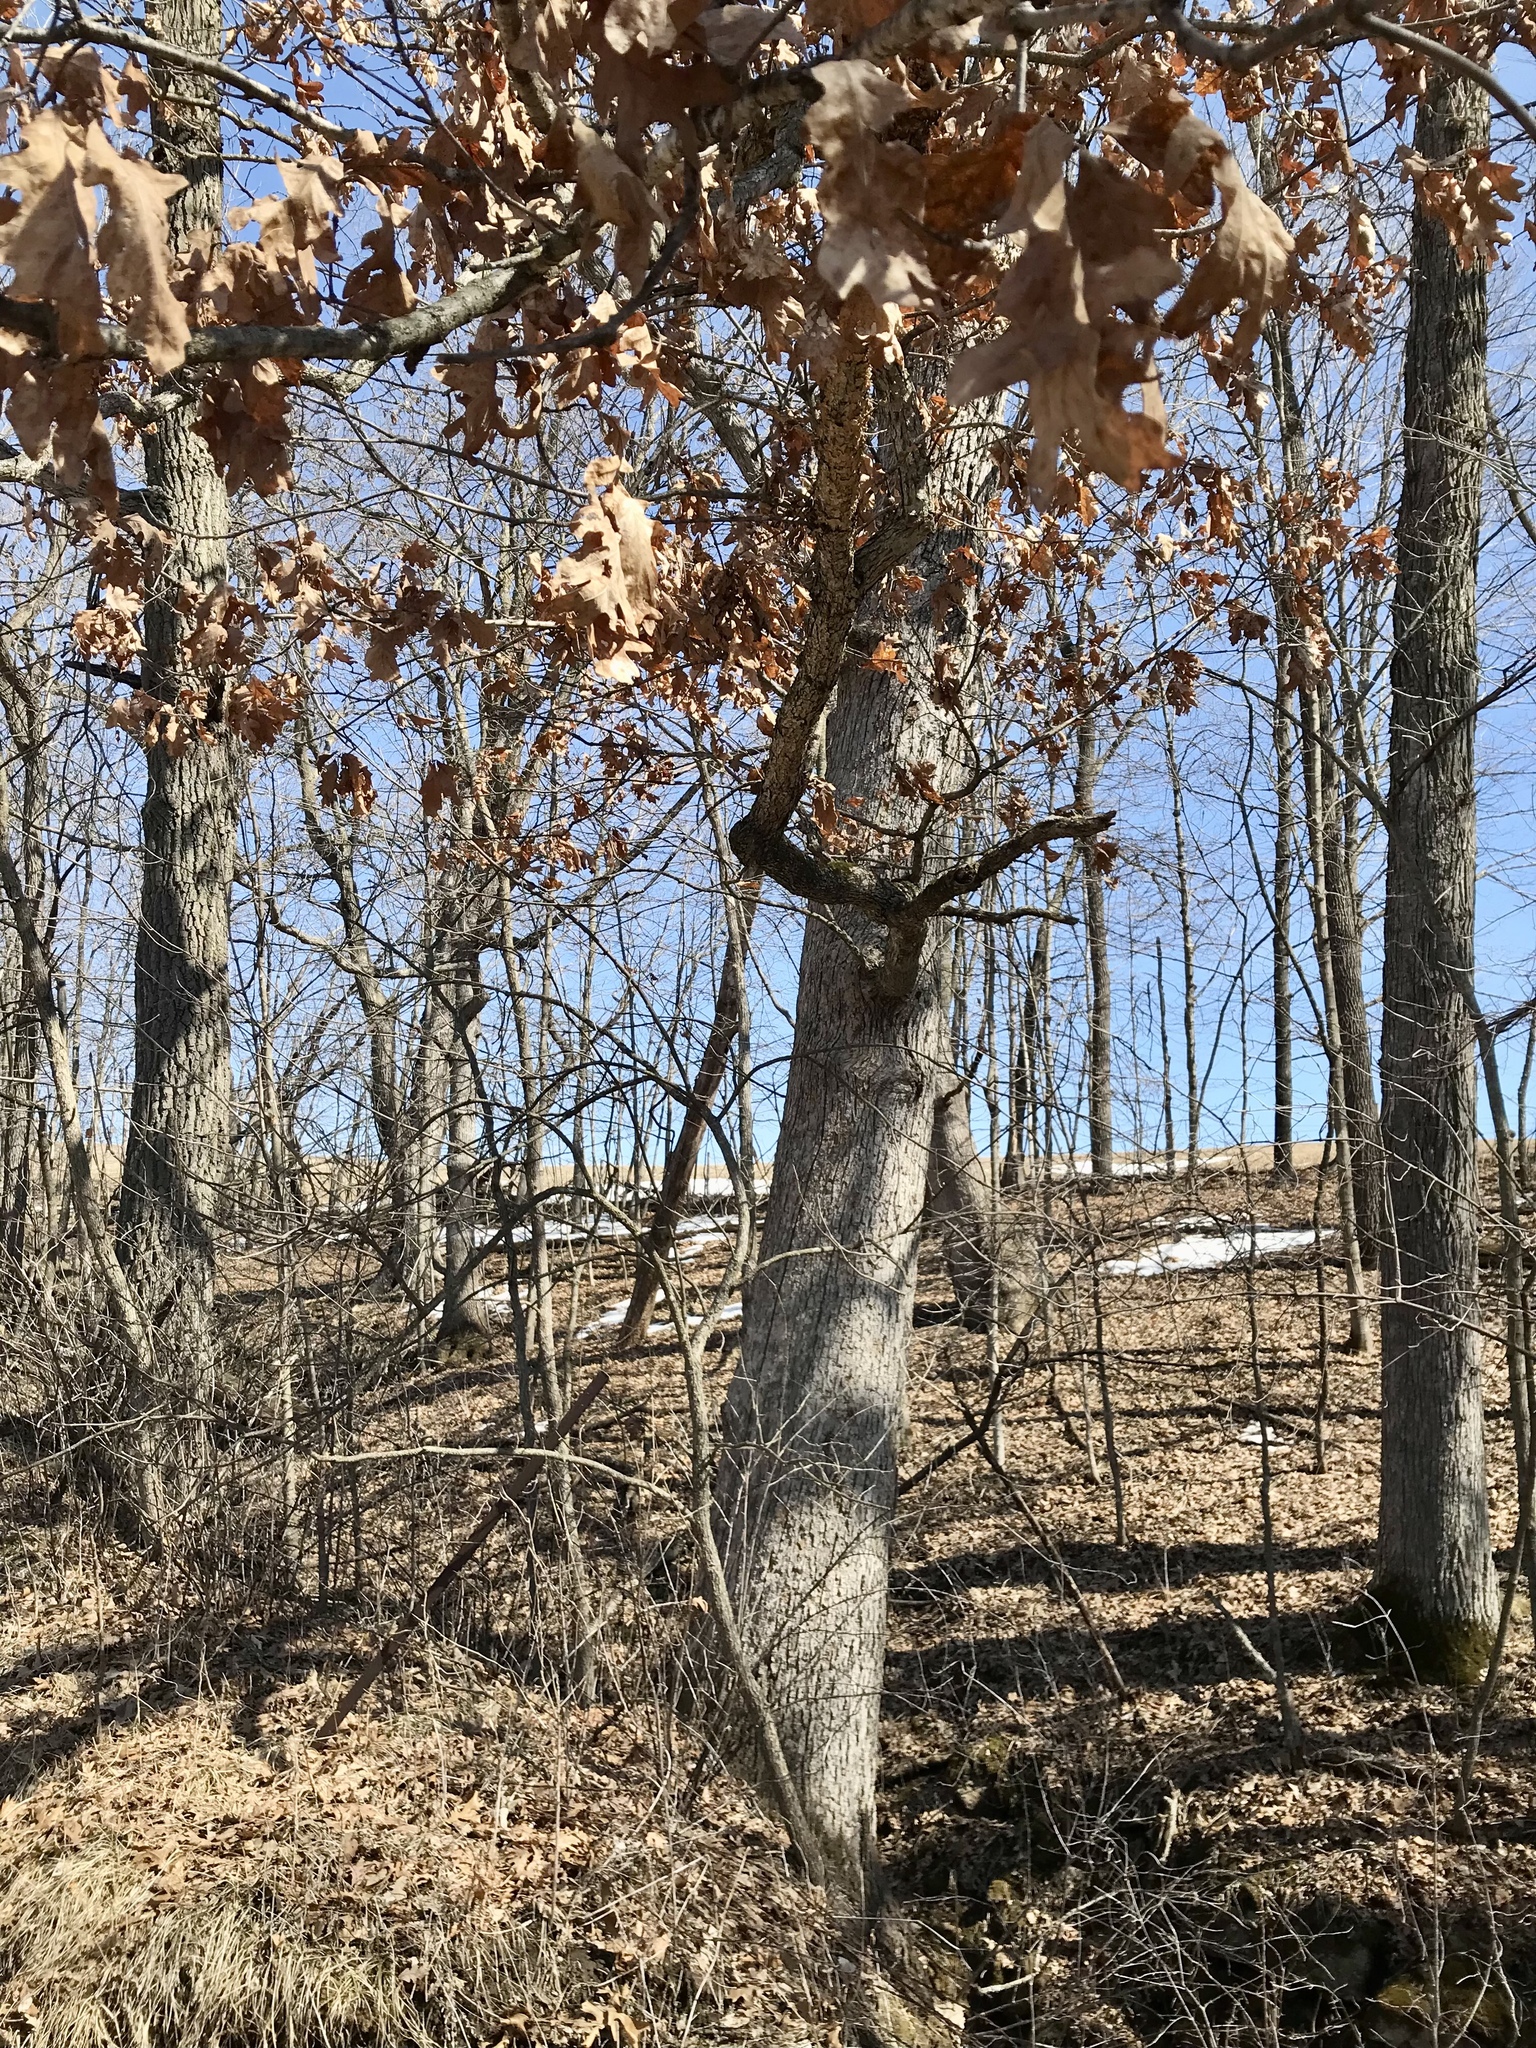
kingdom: Plantae
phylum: Tracheophyta
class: Magnoliopsida
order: Fagales
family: Fagaceae
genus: Quercus
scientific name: Quercus alba
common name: White oak
